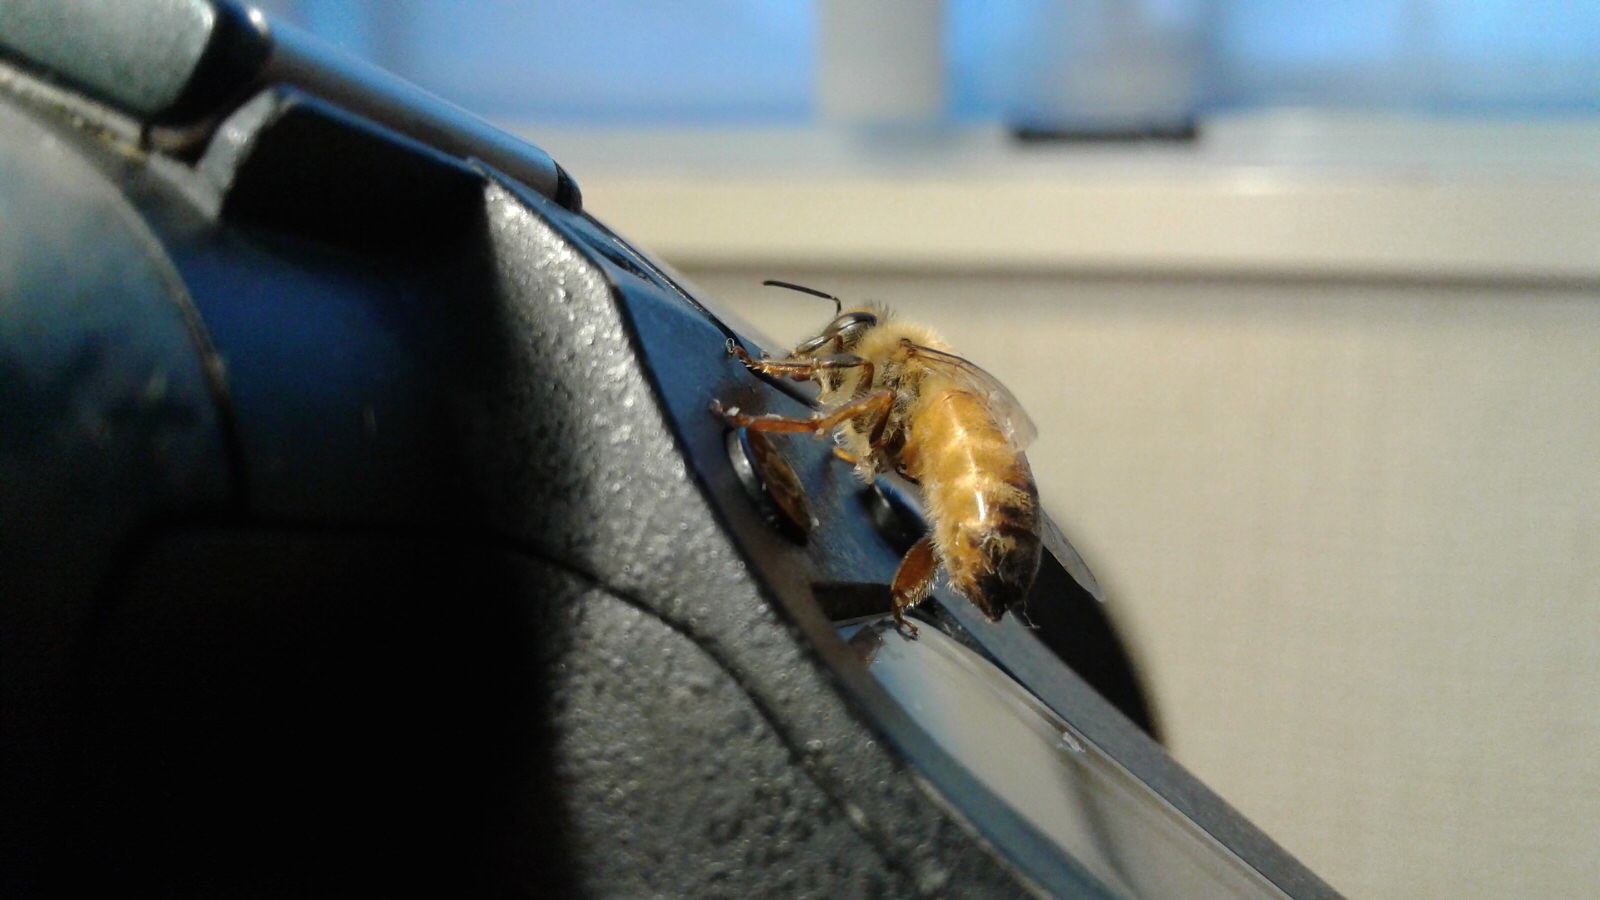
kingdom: Animalia
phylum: Arthropoda
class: Insecta
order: Hymenoptera
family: Apidae
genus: Apis
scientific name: Apis mellifera
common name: Honey bee
